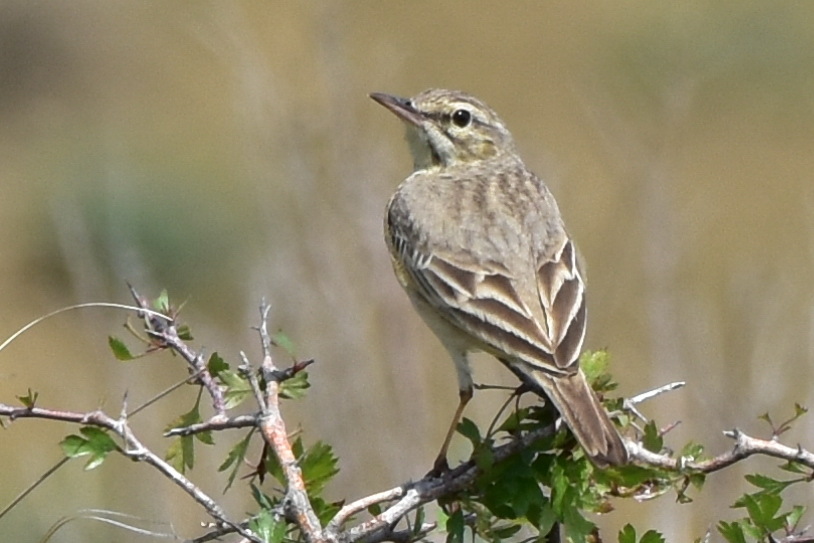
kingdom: Animalia
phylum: Chordata
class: Aves
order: Passeriformes
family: Motacillidae
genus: Anthus
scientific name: Anthus campestris
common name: Tawny pipit
